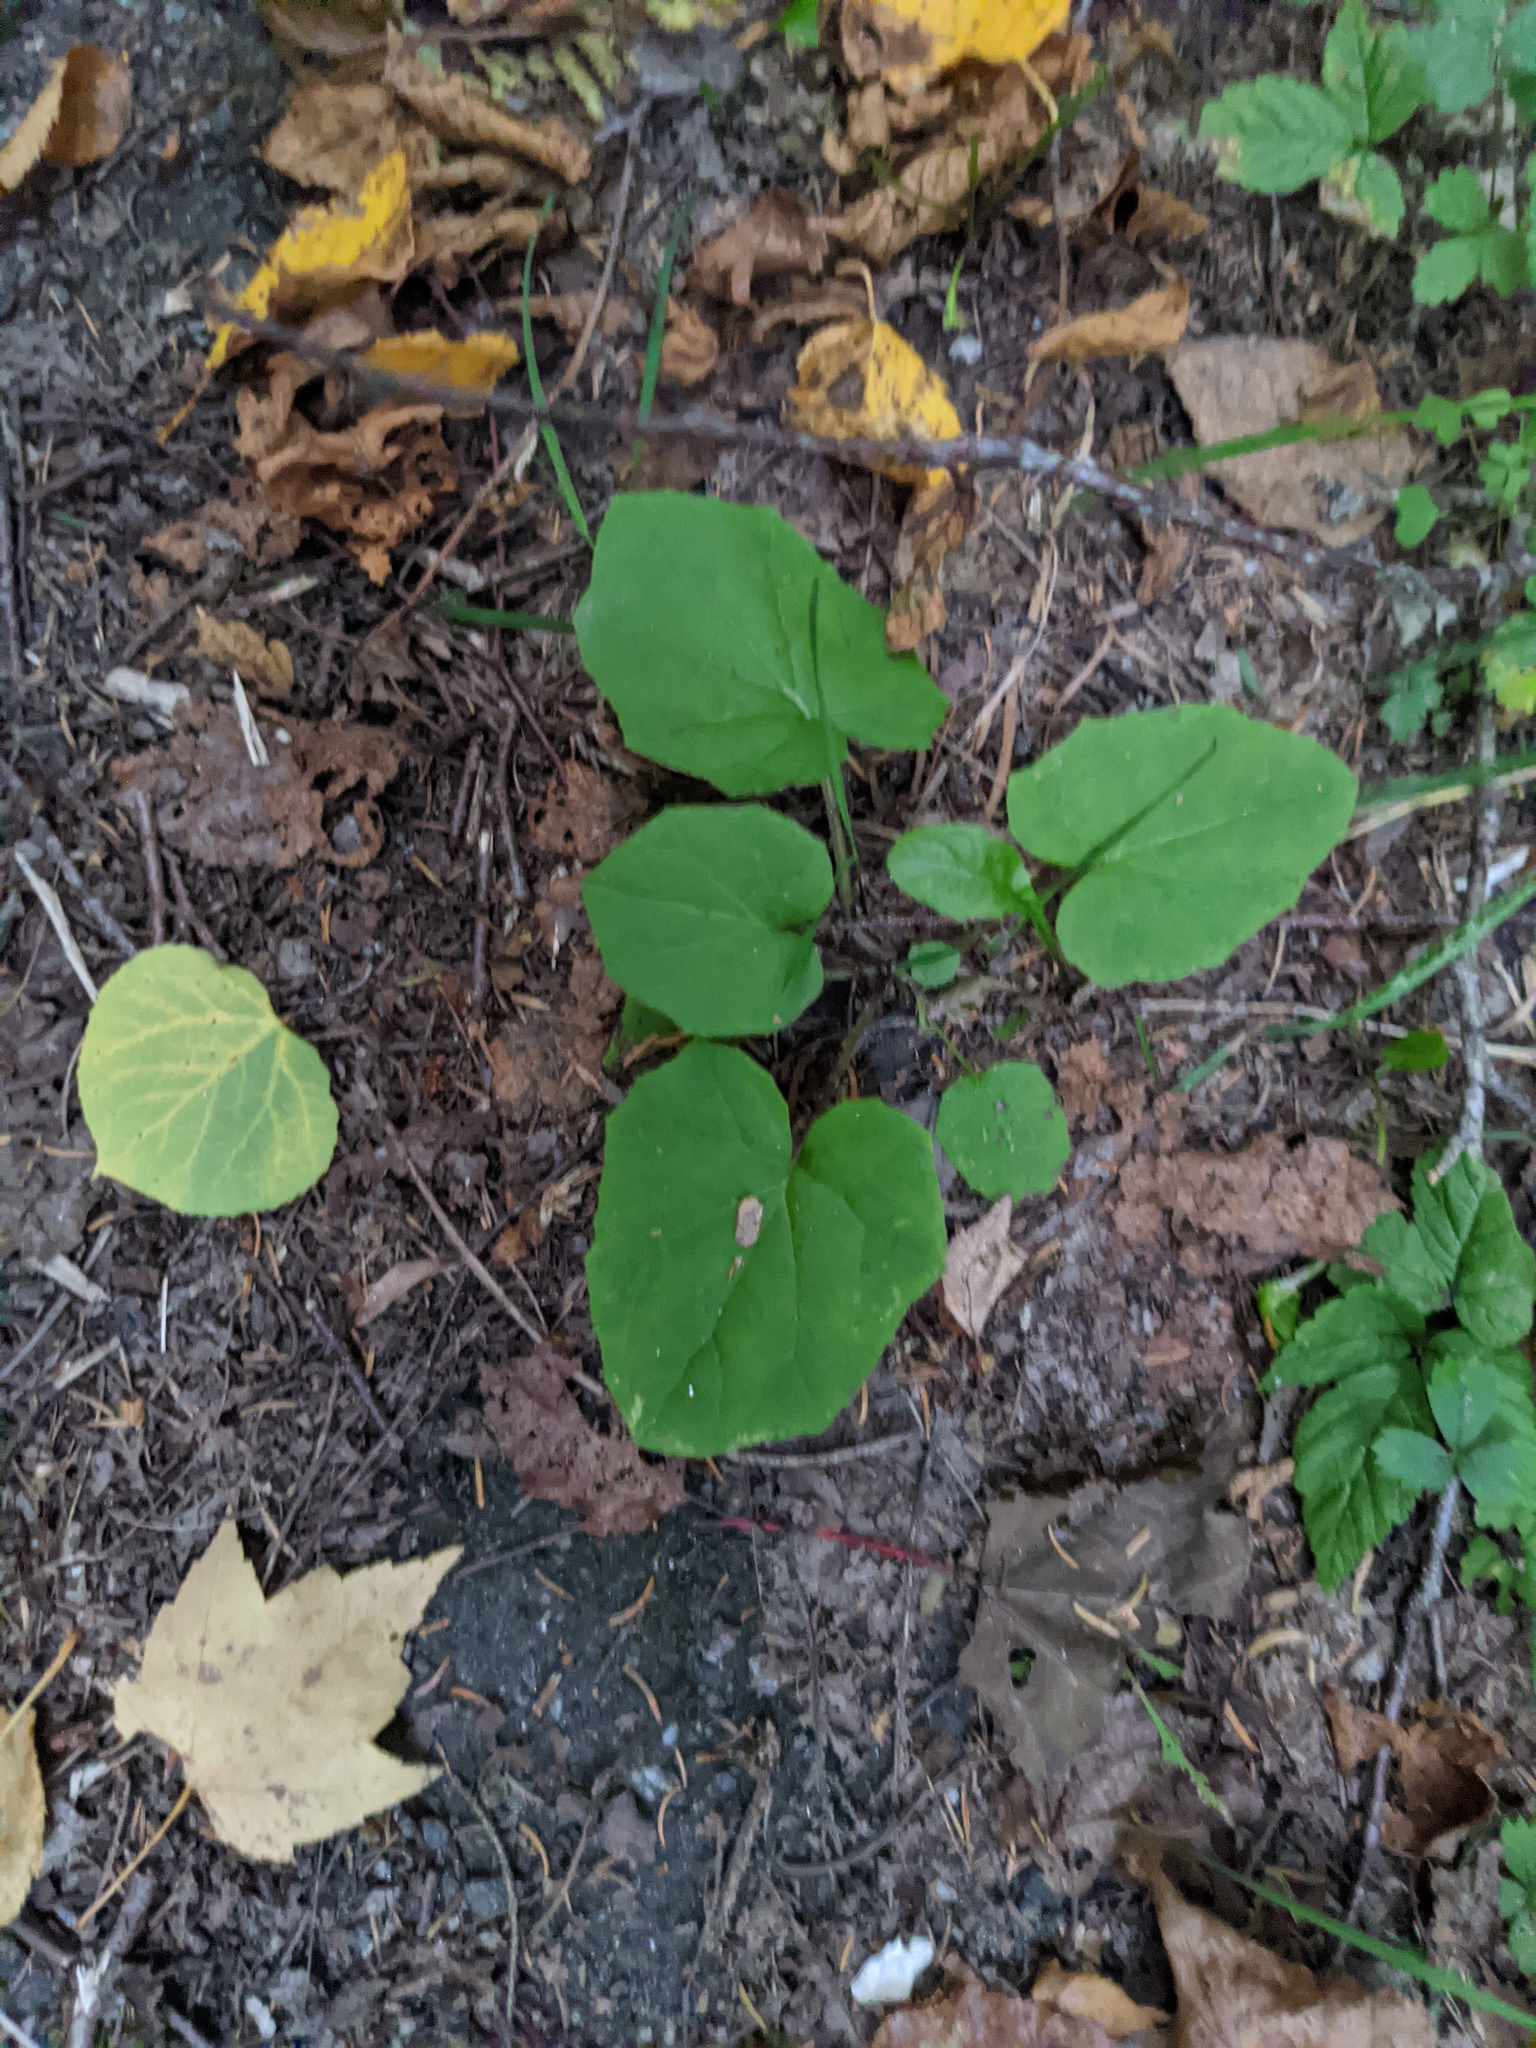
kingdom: Plantae
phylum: Tracheophyta
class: Magnoliopsida
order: Asterales
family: Asteraceae
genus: Tussilago
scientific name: Tussilago farfara
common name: Coltsfoot
